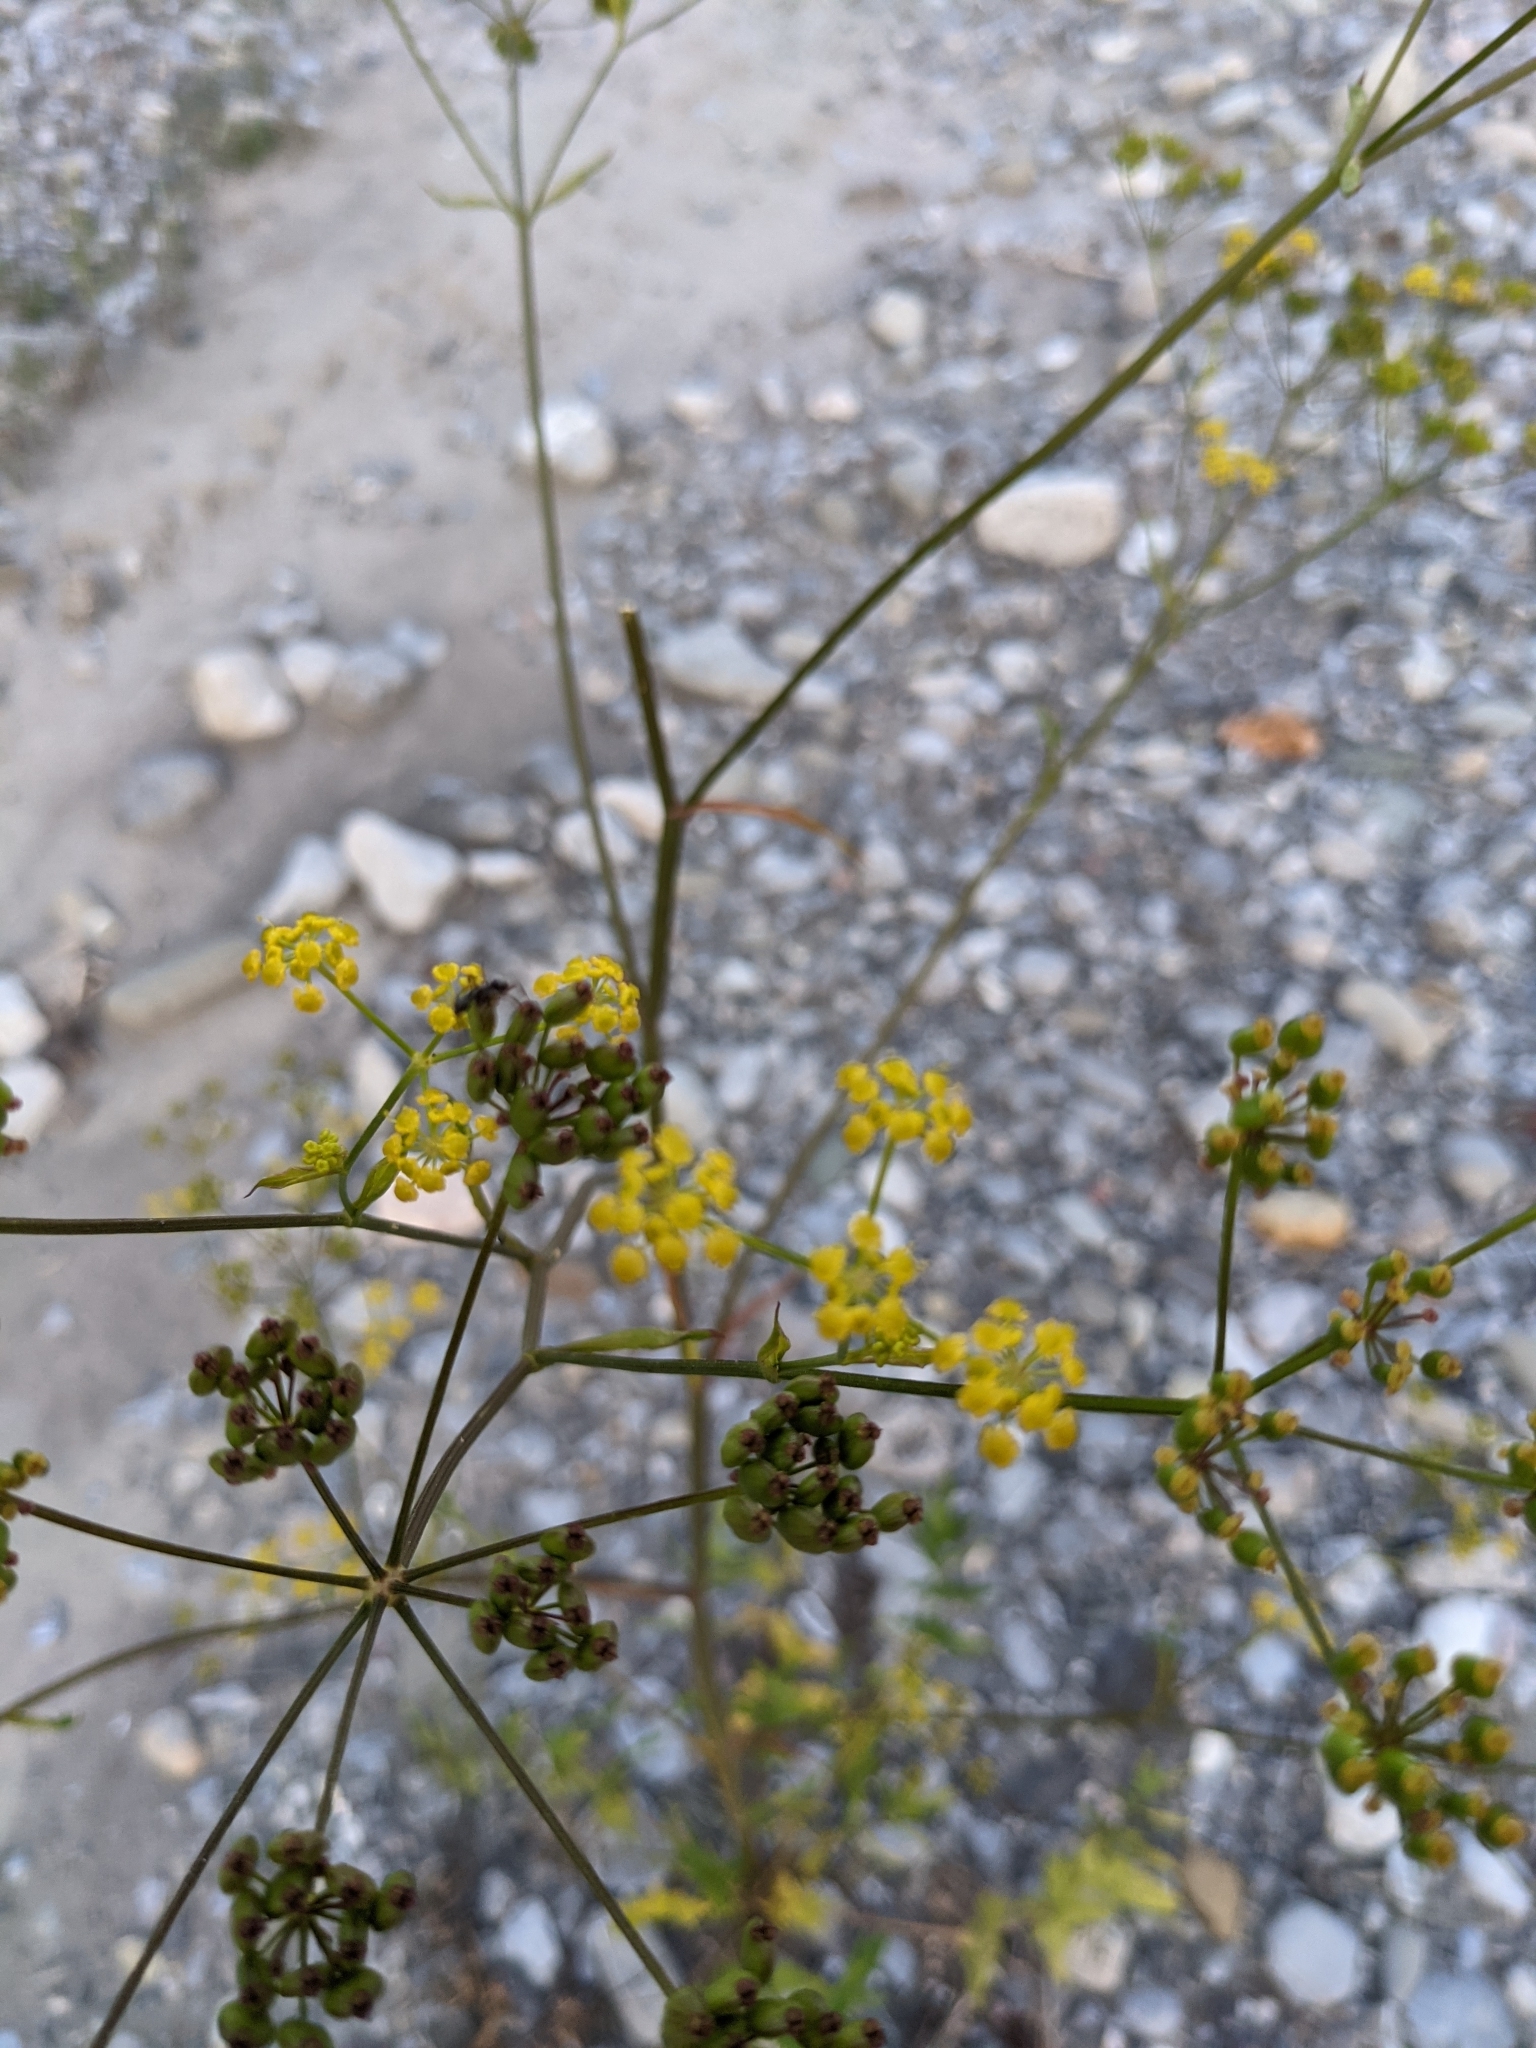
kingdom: Plantae
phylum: Tracheophyta
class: Magnoliopsida
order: Apiales
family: Apiaceae
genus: Pastinaca
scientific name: Pastinaca sativa
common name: Wild parsnip
